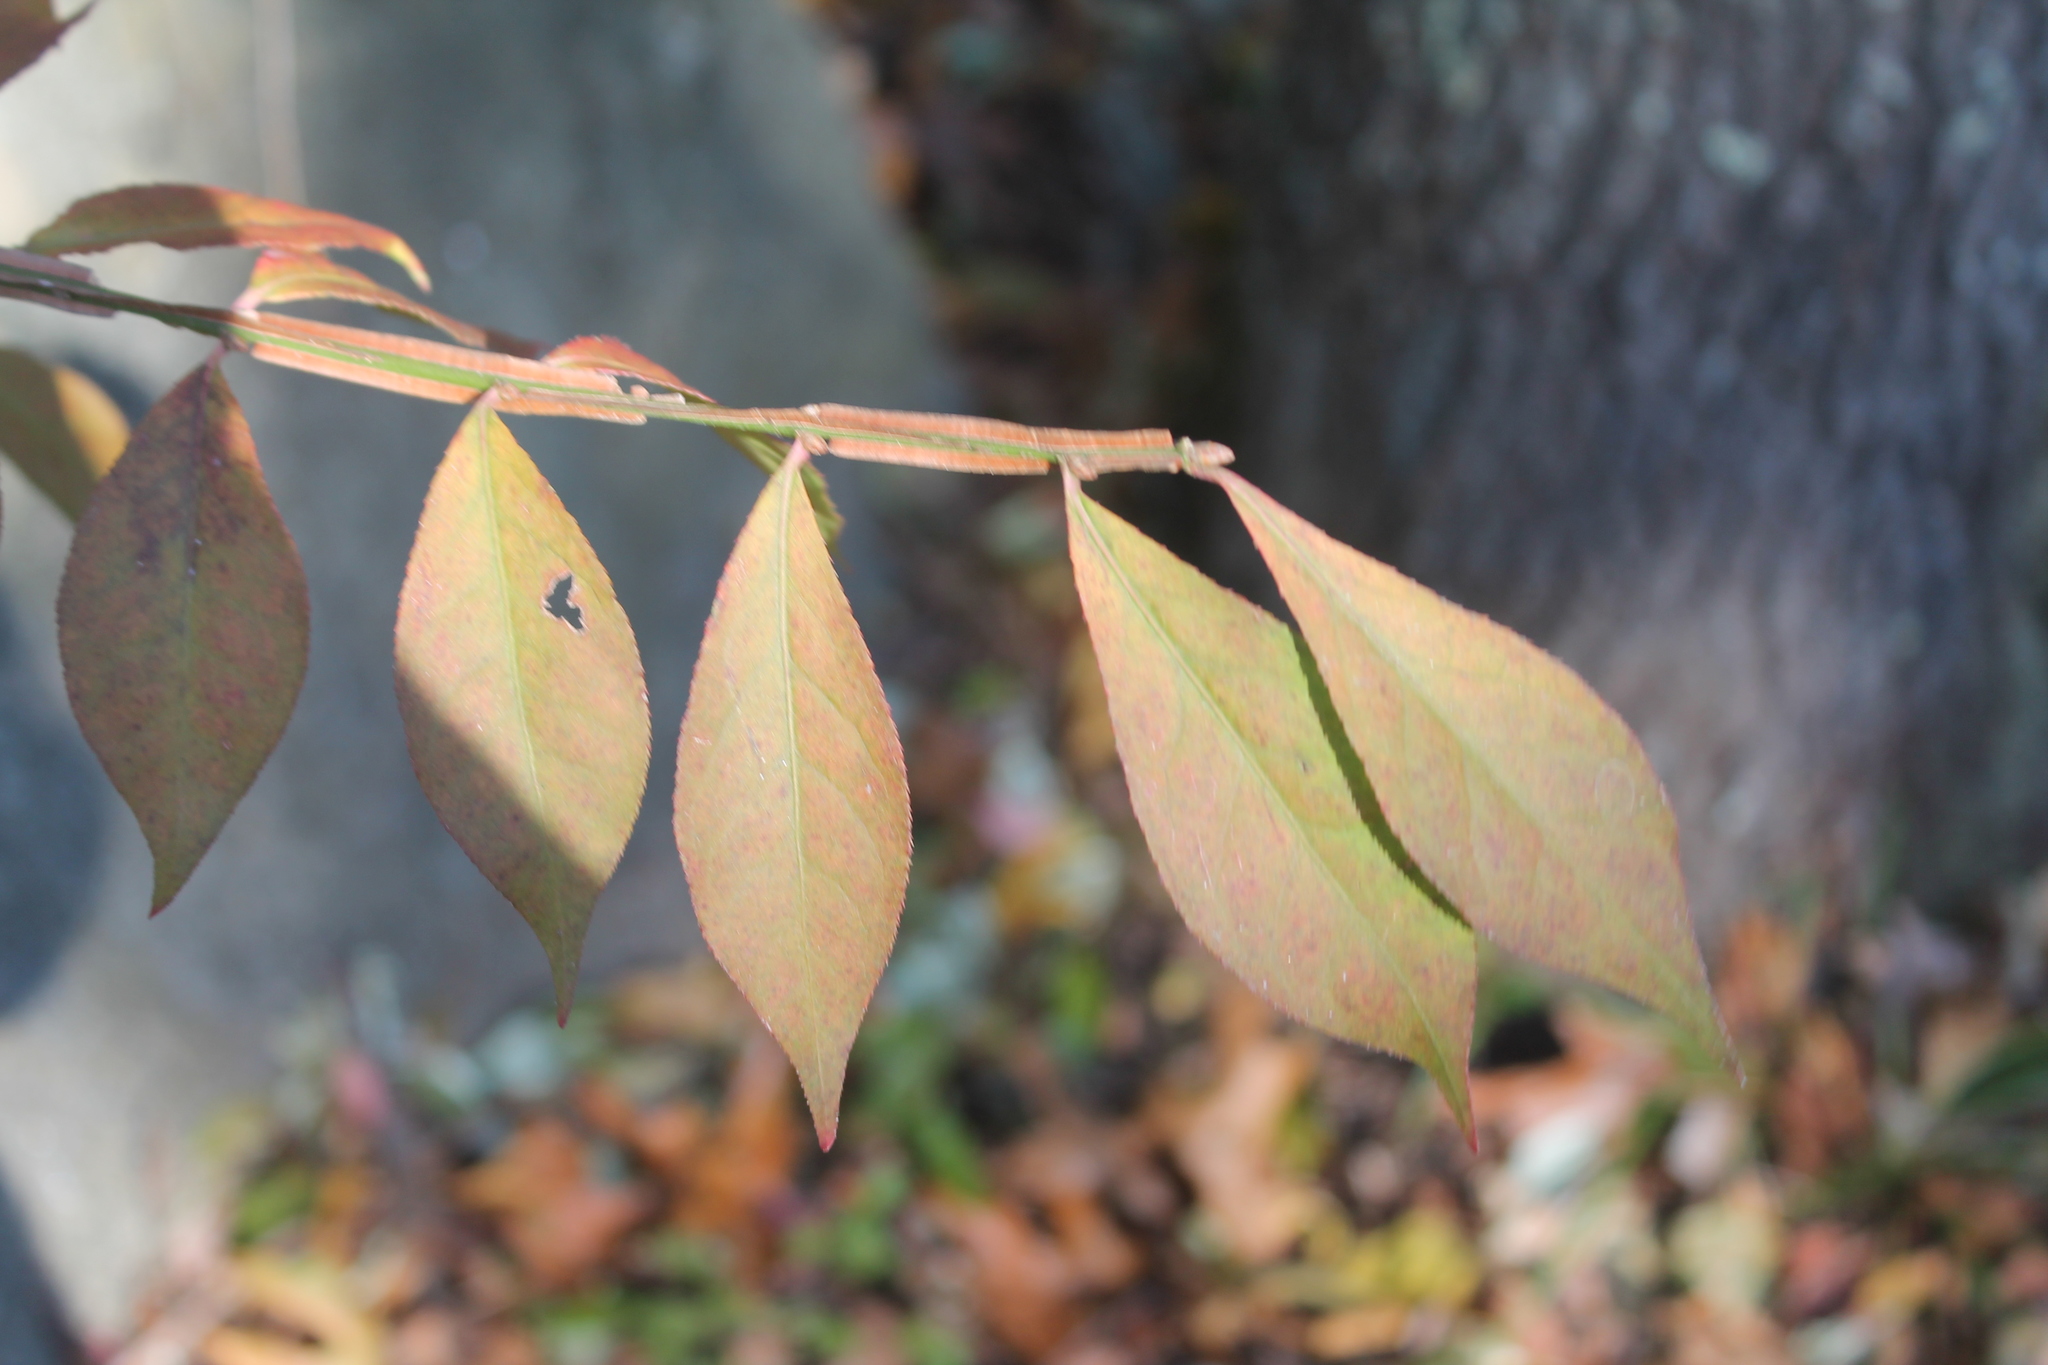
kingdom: Plantae
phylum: Tracheophyta
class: Magnoliopsida
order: Celastrales
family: Celastraceae
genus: Euonymus
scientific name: Euonymus alatus
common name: Winged euonymus
